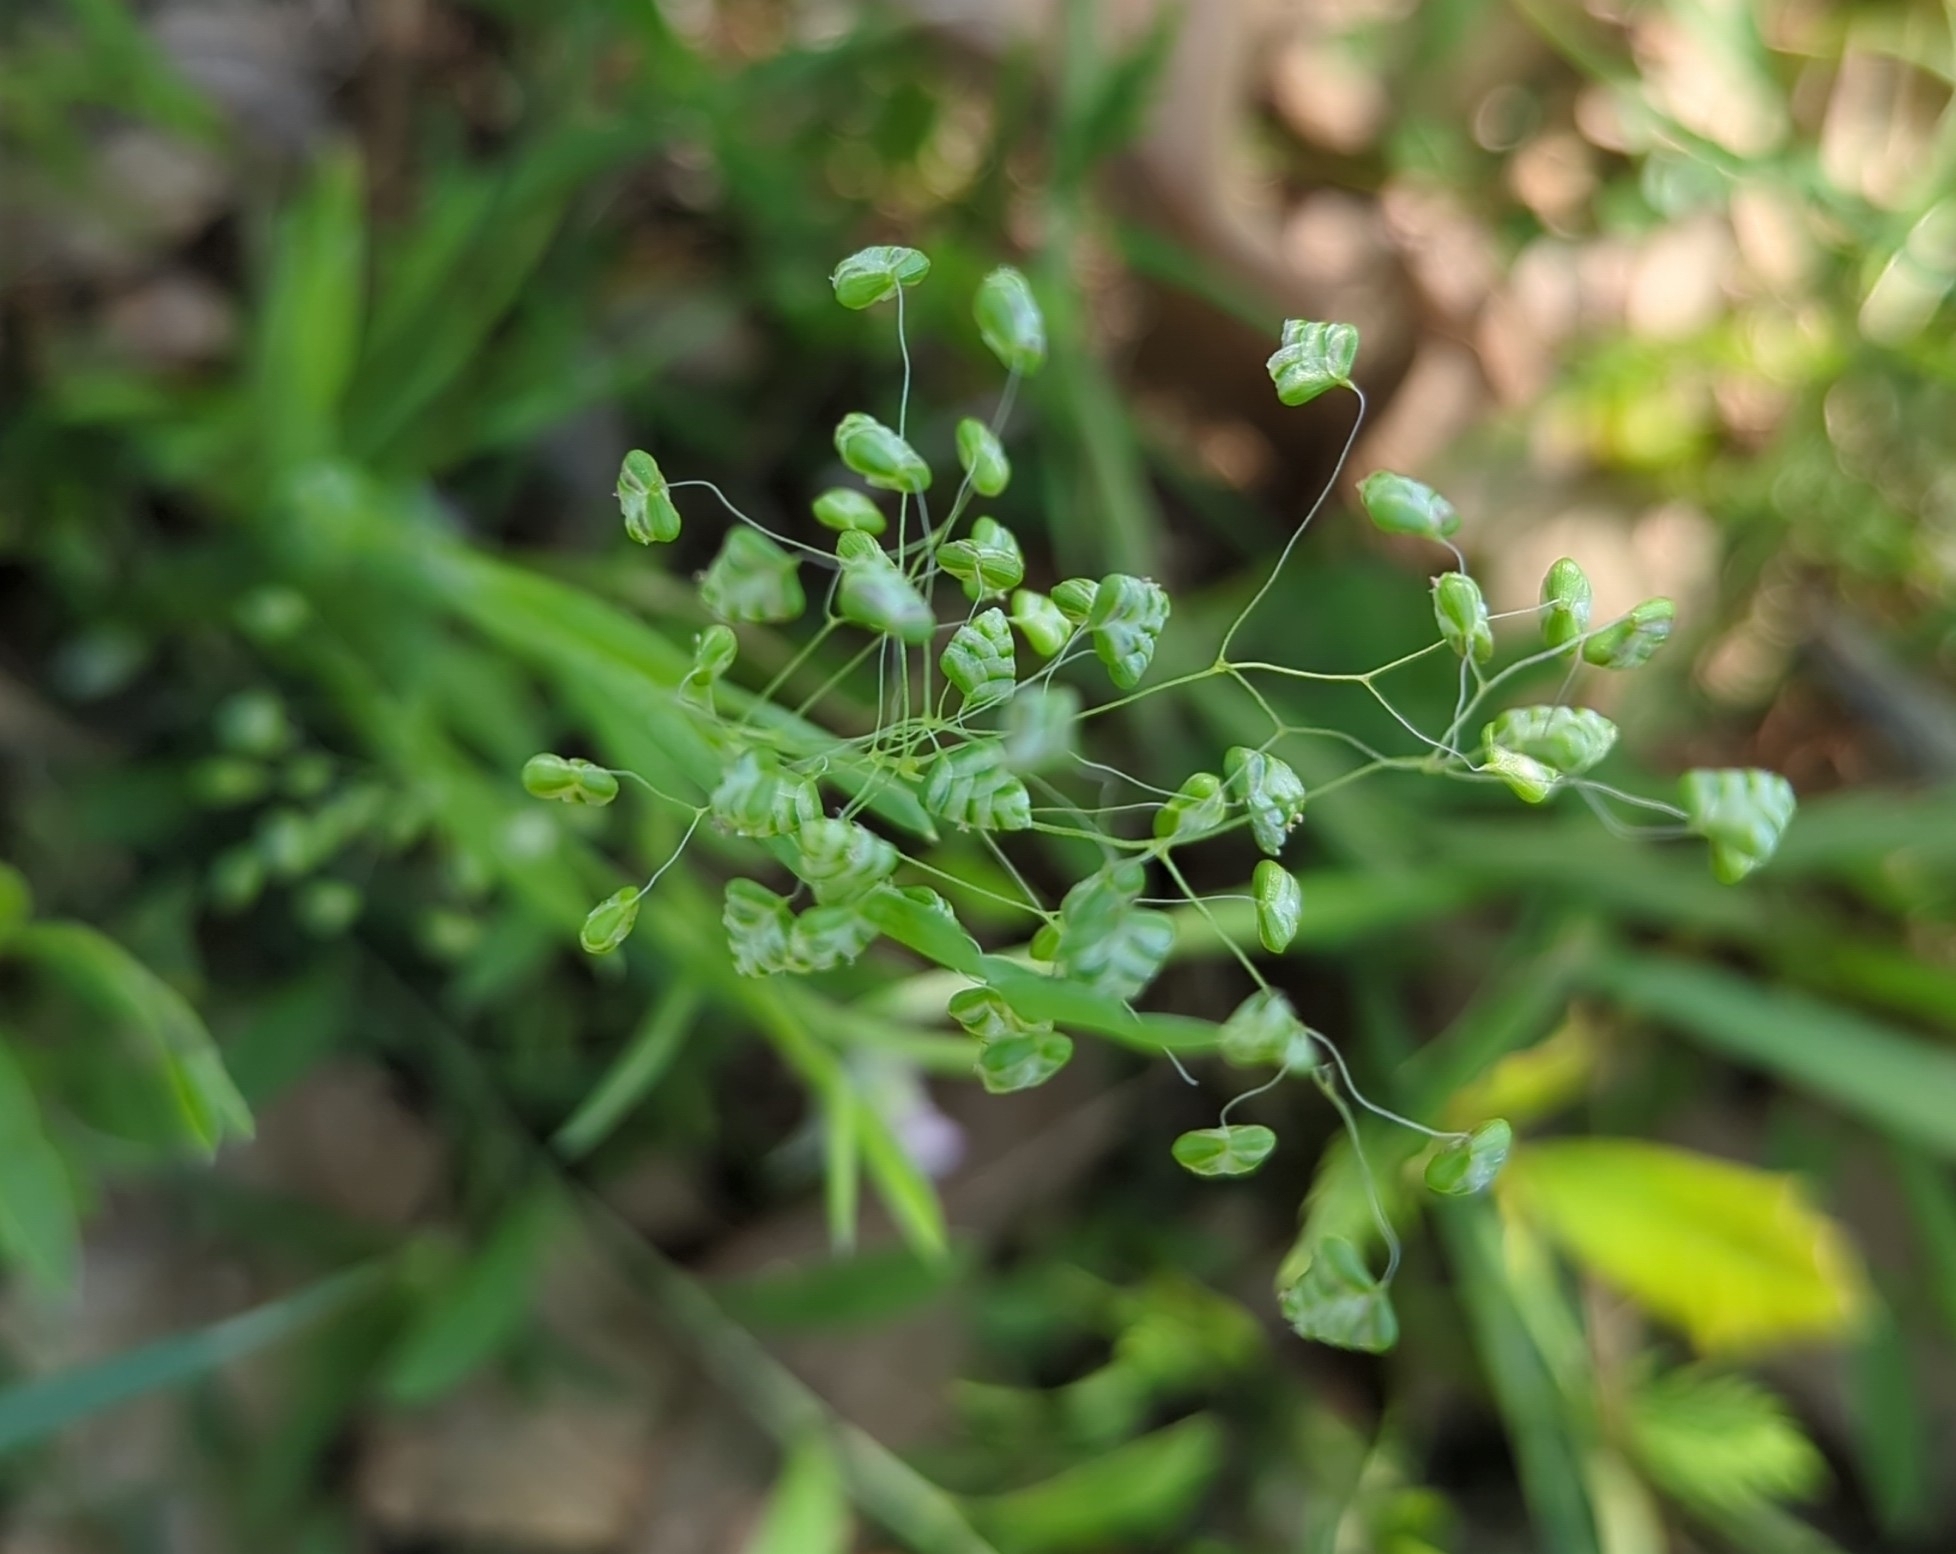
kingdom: Plantae
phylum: Tracheophyta
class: Liliopsida
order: Poales
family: Poaceae
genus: Briza
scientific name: Briza minor
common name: Lesser quaking-grass
